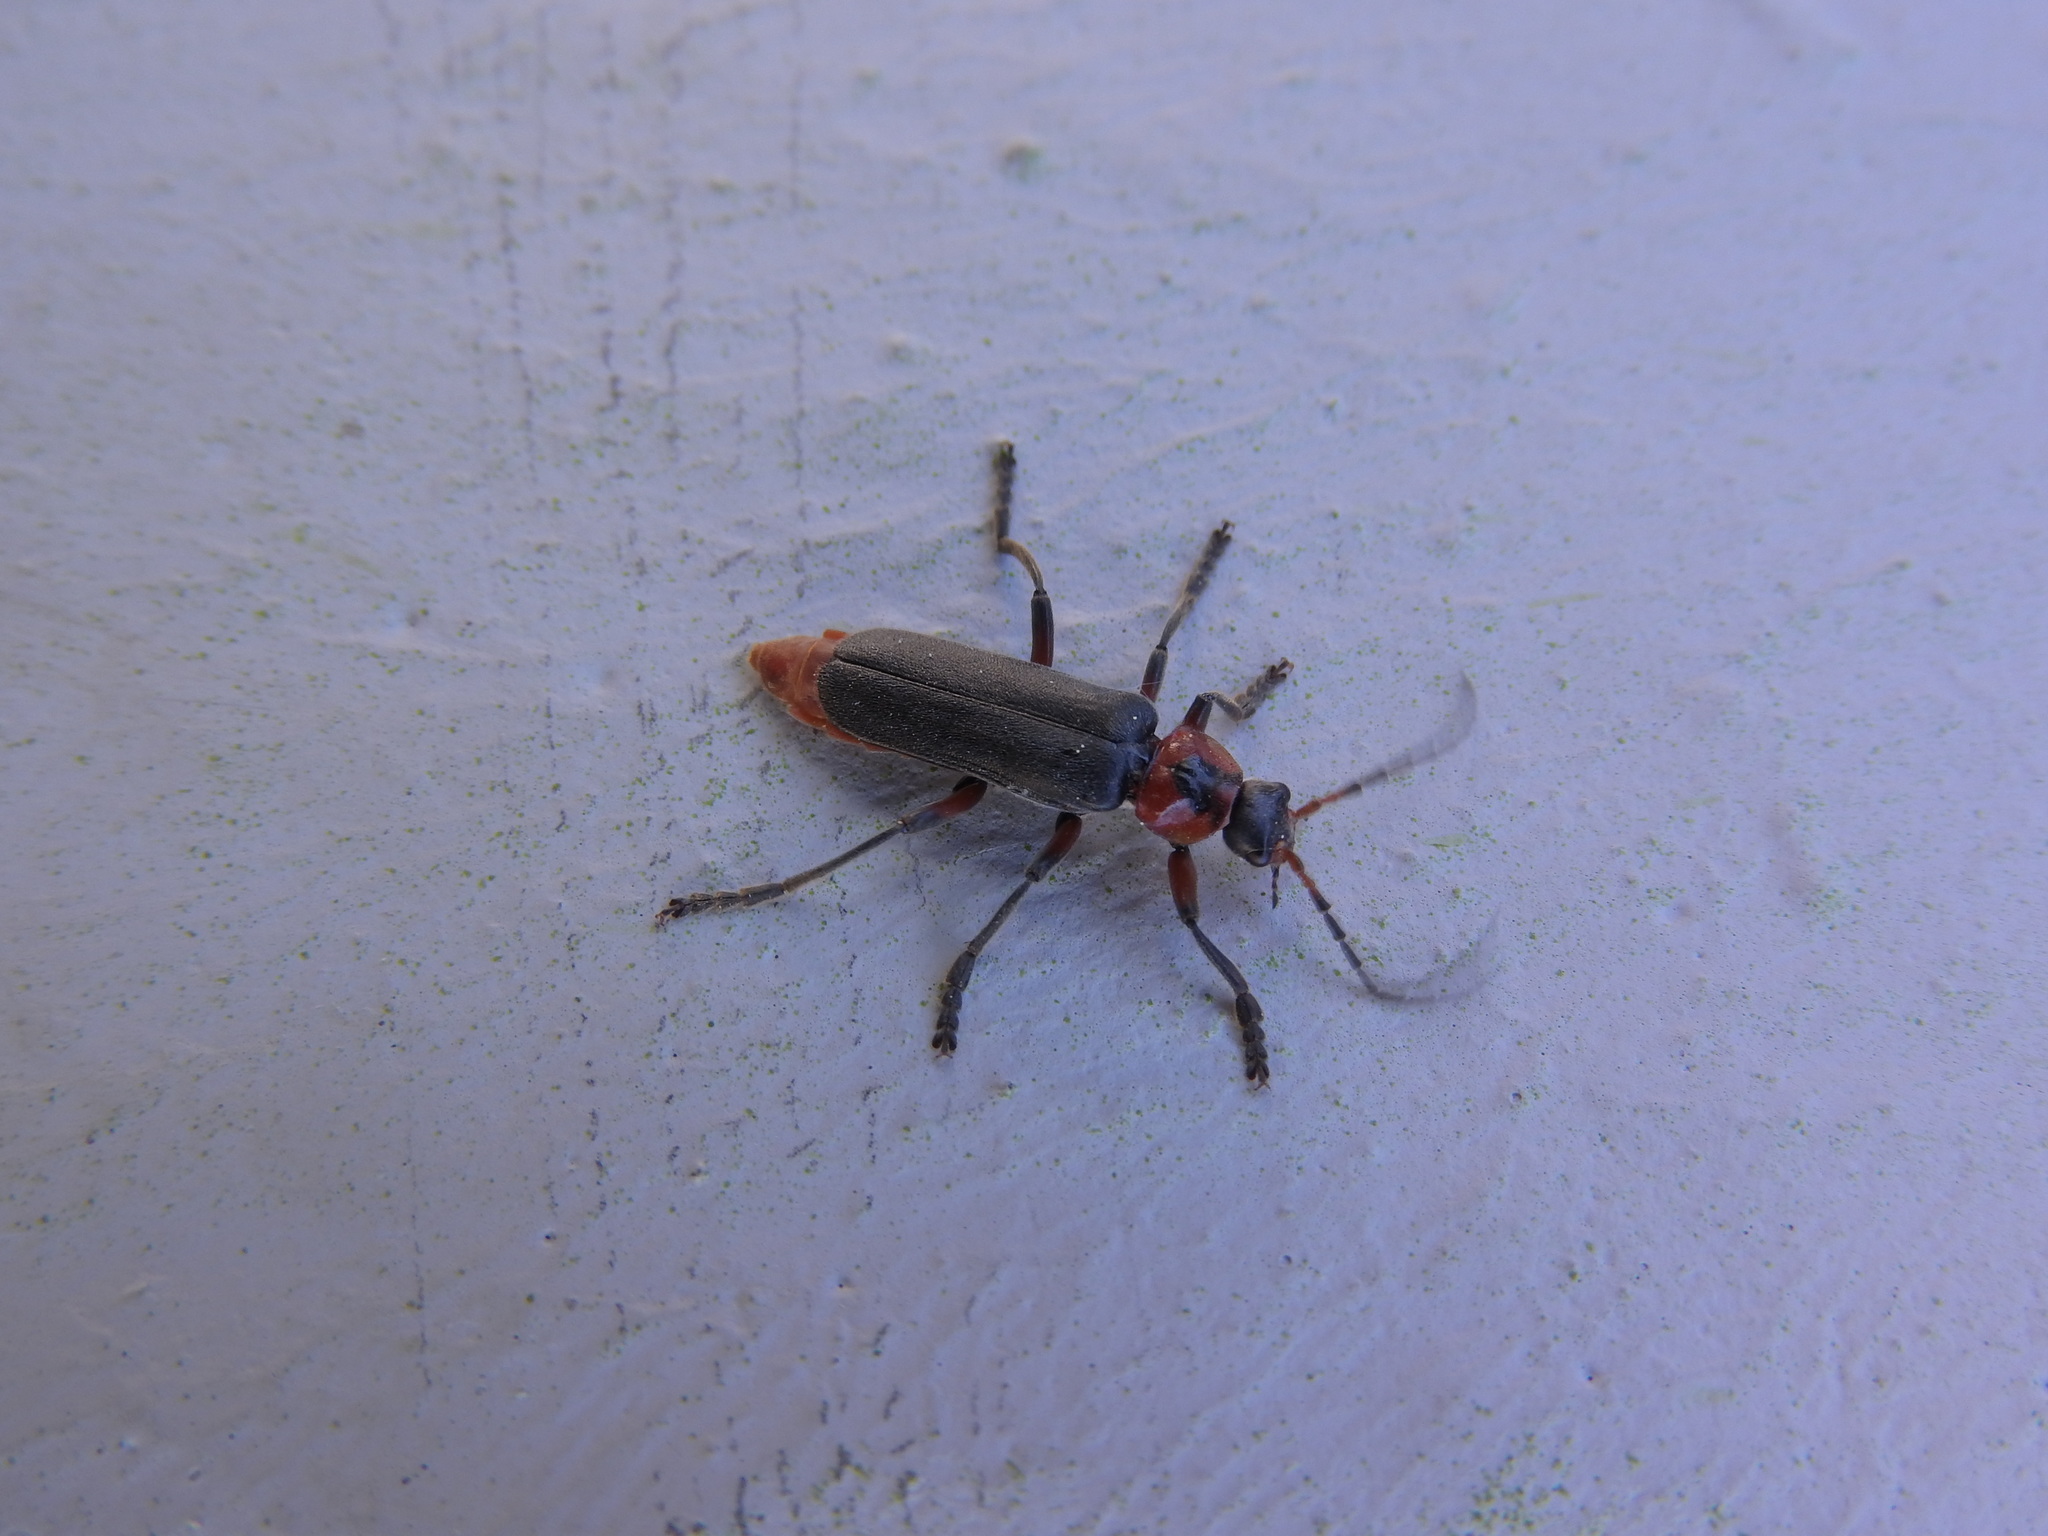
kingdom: Animalia
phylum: Arthropoda
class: Insecta
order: Coleoptera
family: Cantharidae
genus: Cantharis
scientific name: Cantharis rustica
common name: Soldier beetle
